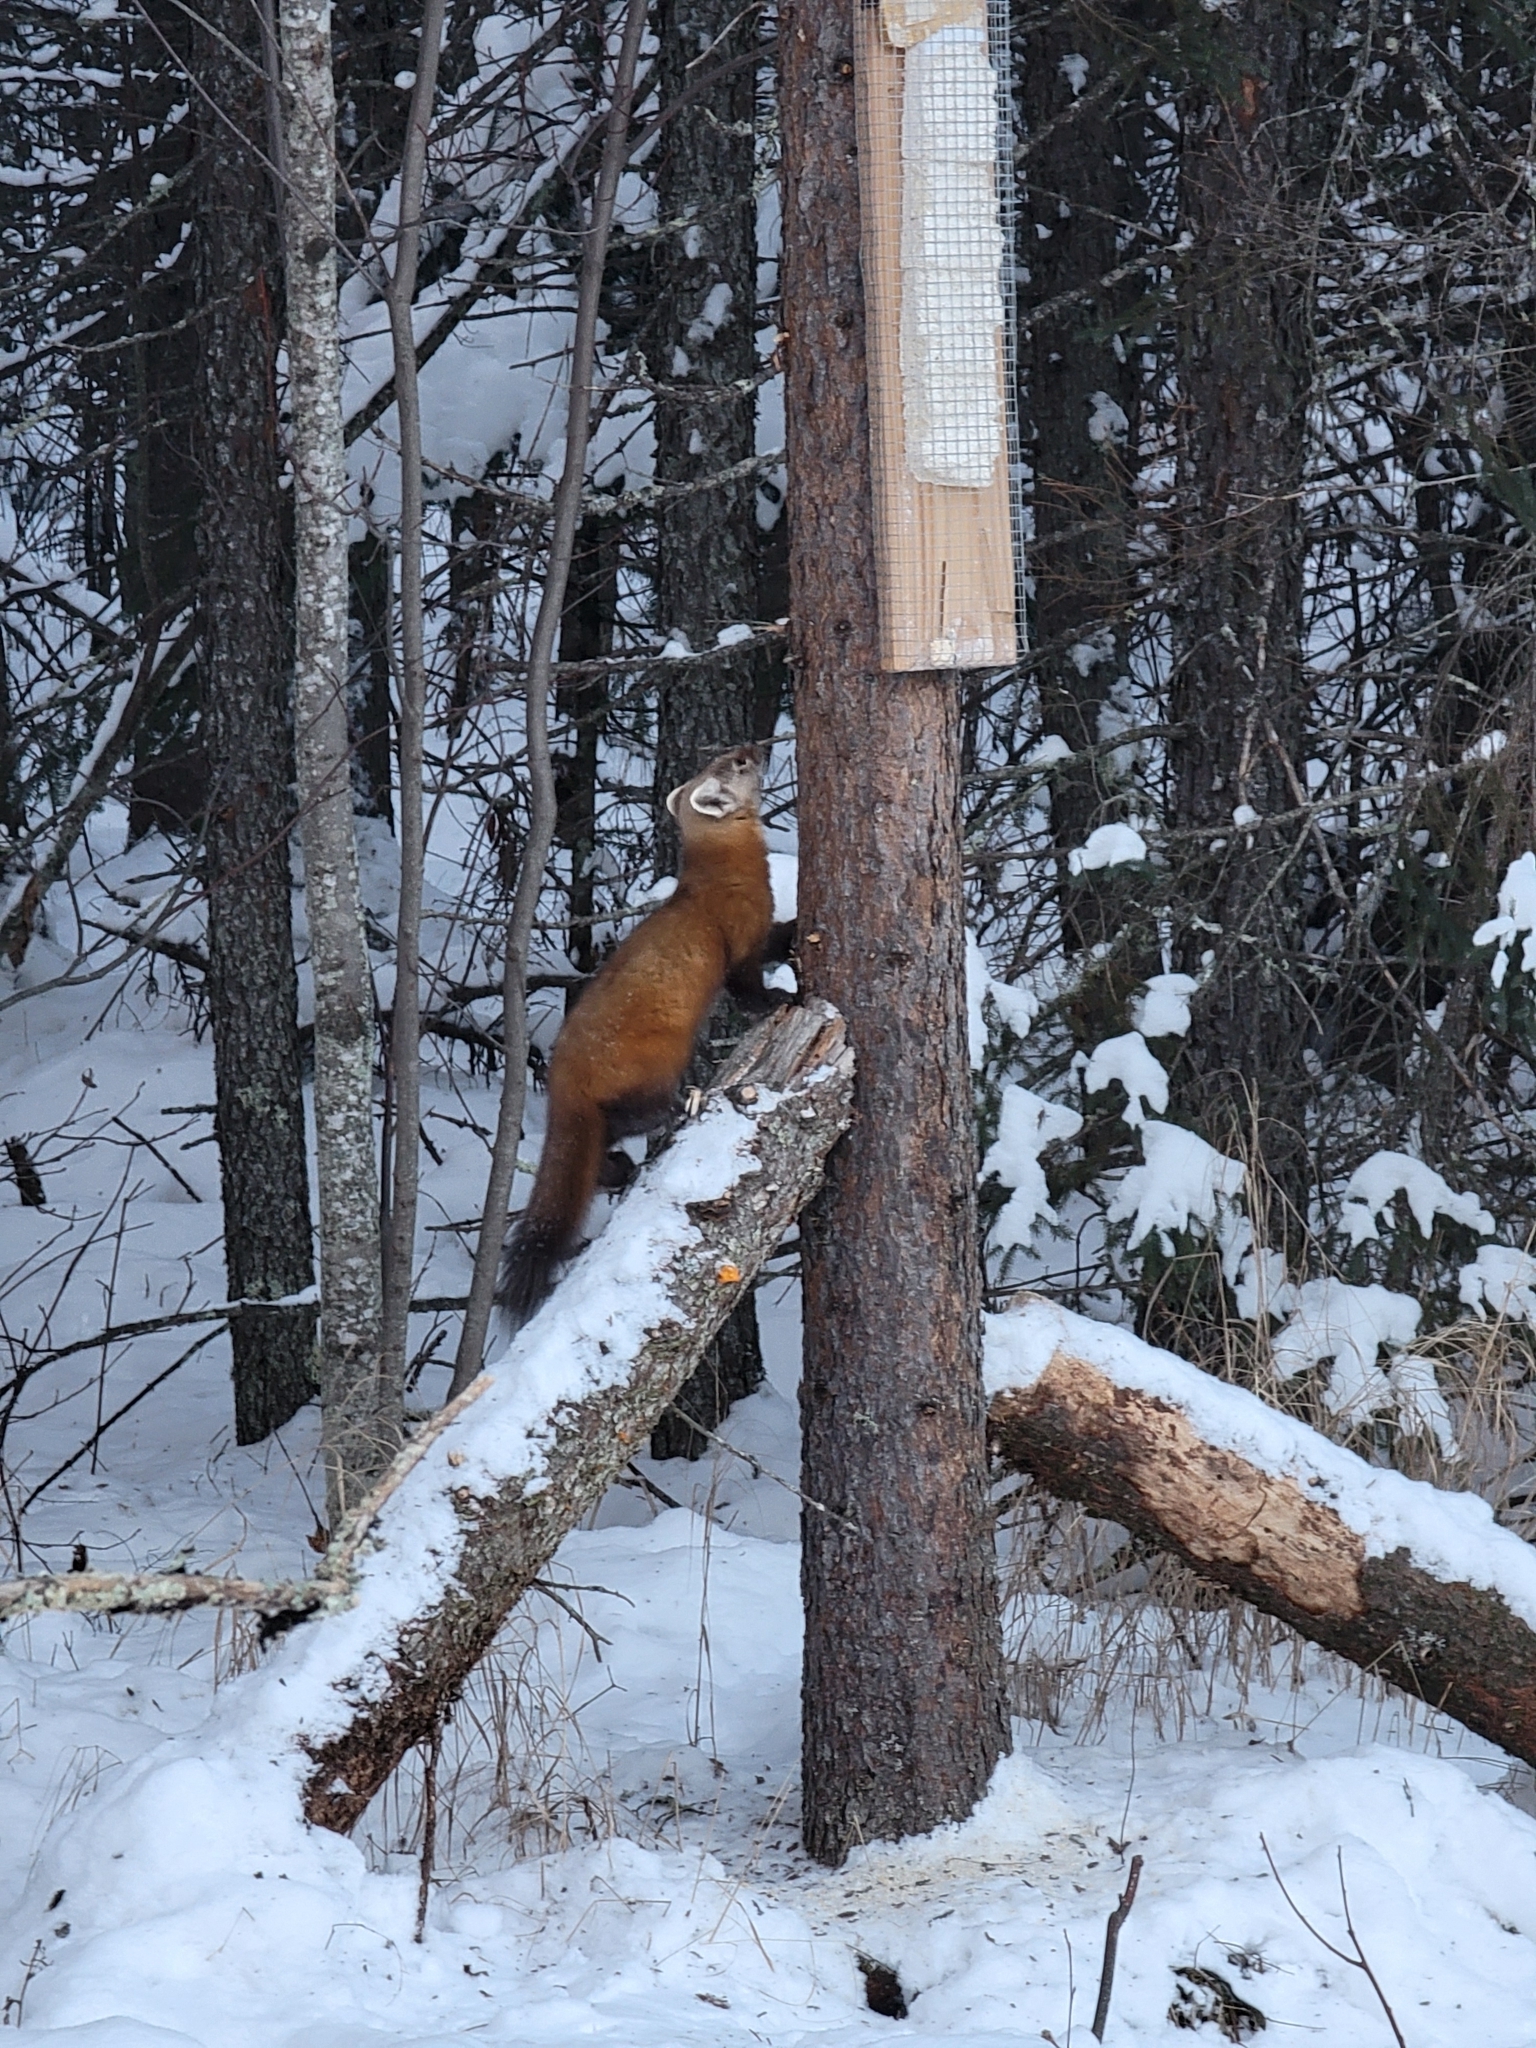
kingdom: Animalia
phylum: Chordata
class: Mammalia
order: Carnivora
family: Mustelidae
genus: Martes
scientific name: Martes americana
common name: American marten
